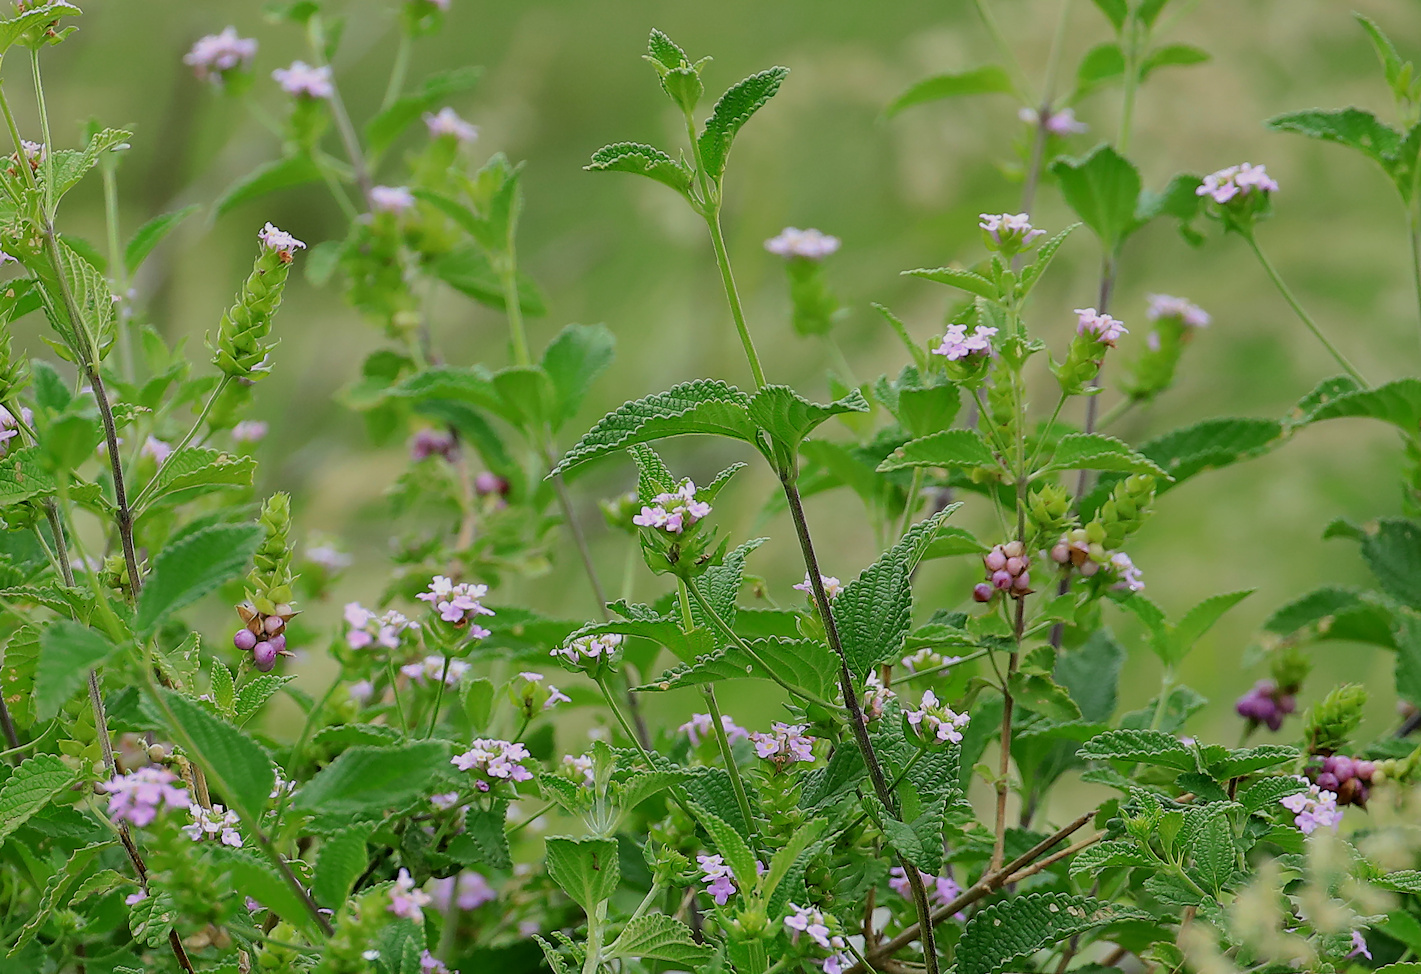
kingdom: Plantae
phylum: Tracheophyta
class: Magnoliopsida
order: Lamiales
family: Verbenaceae
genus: Lantana
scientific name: Lantana rugosa
